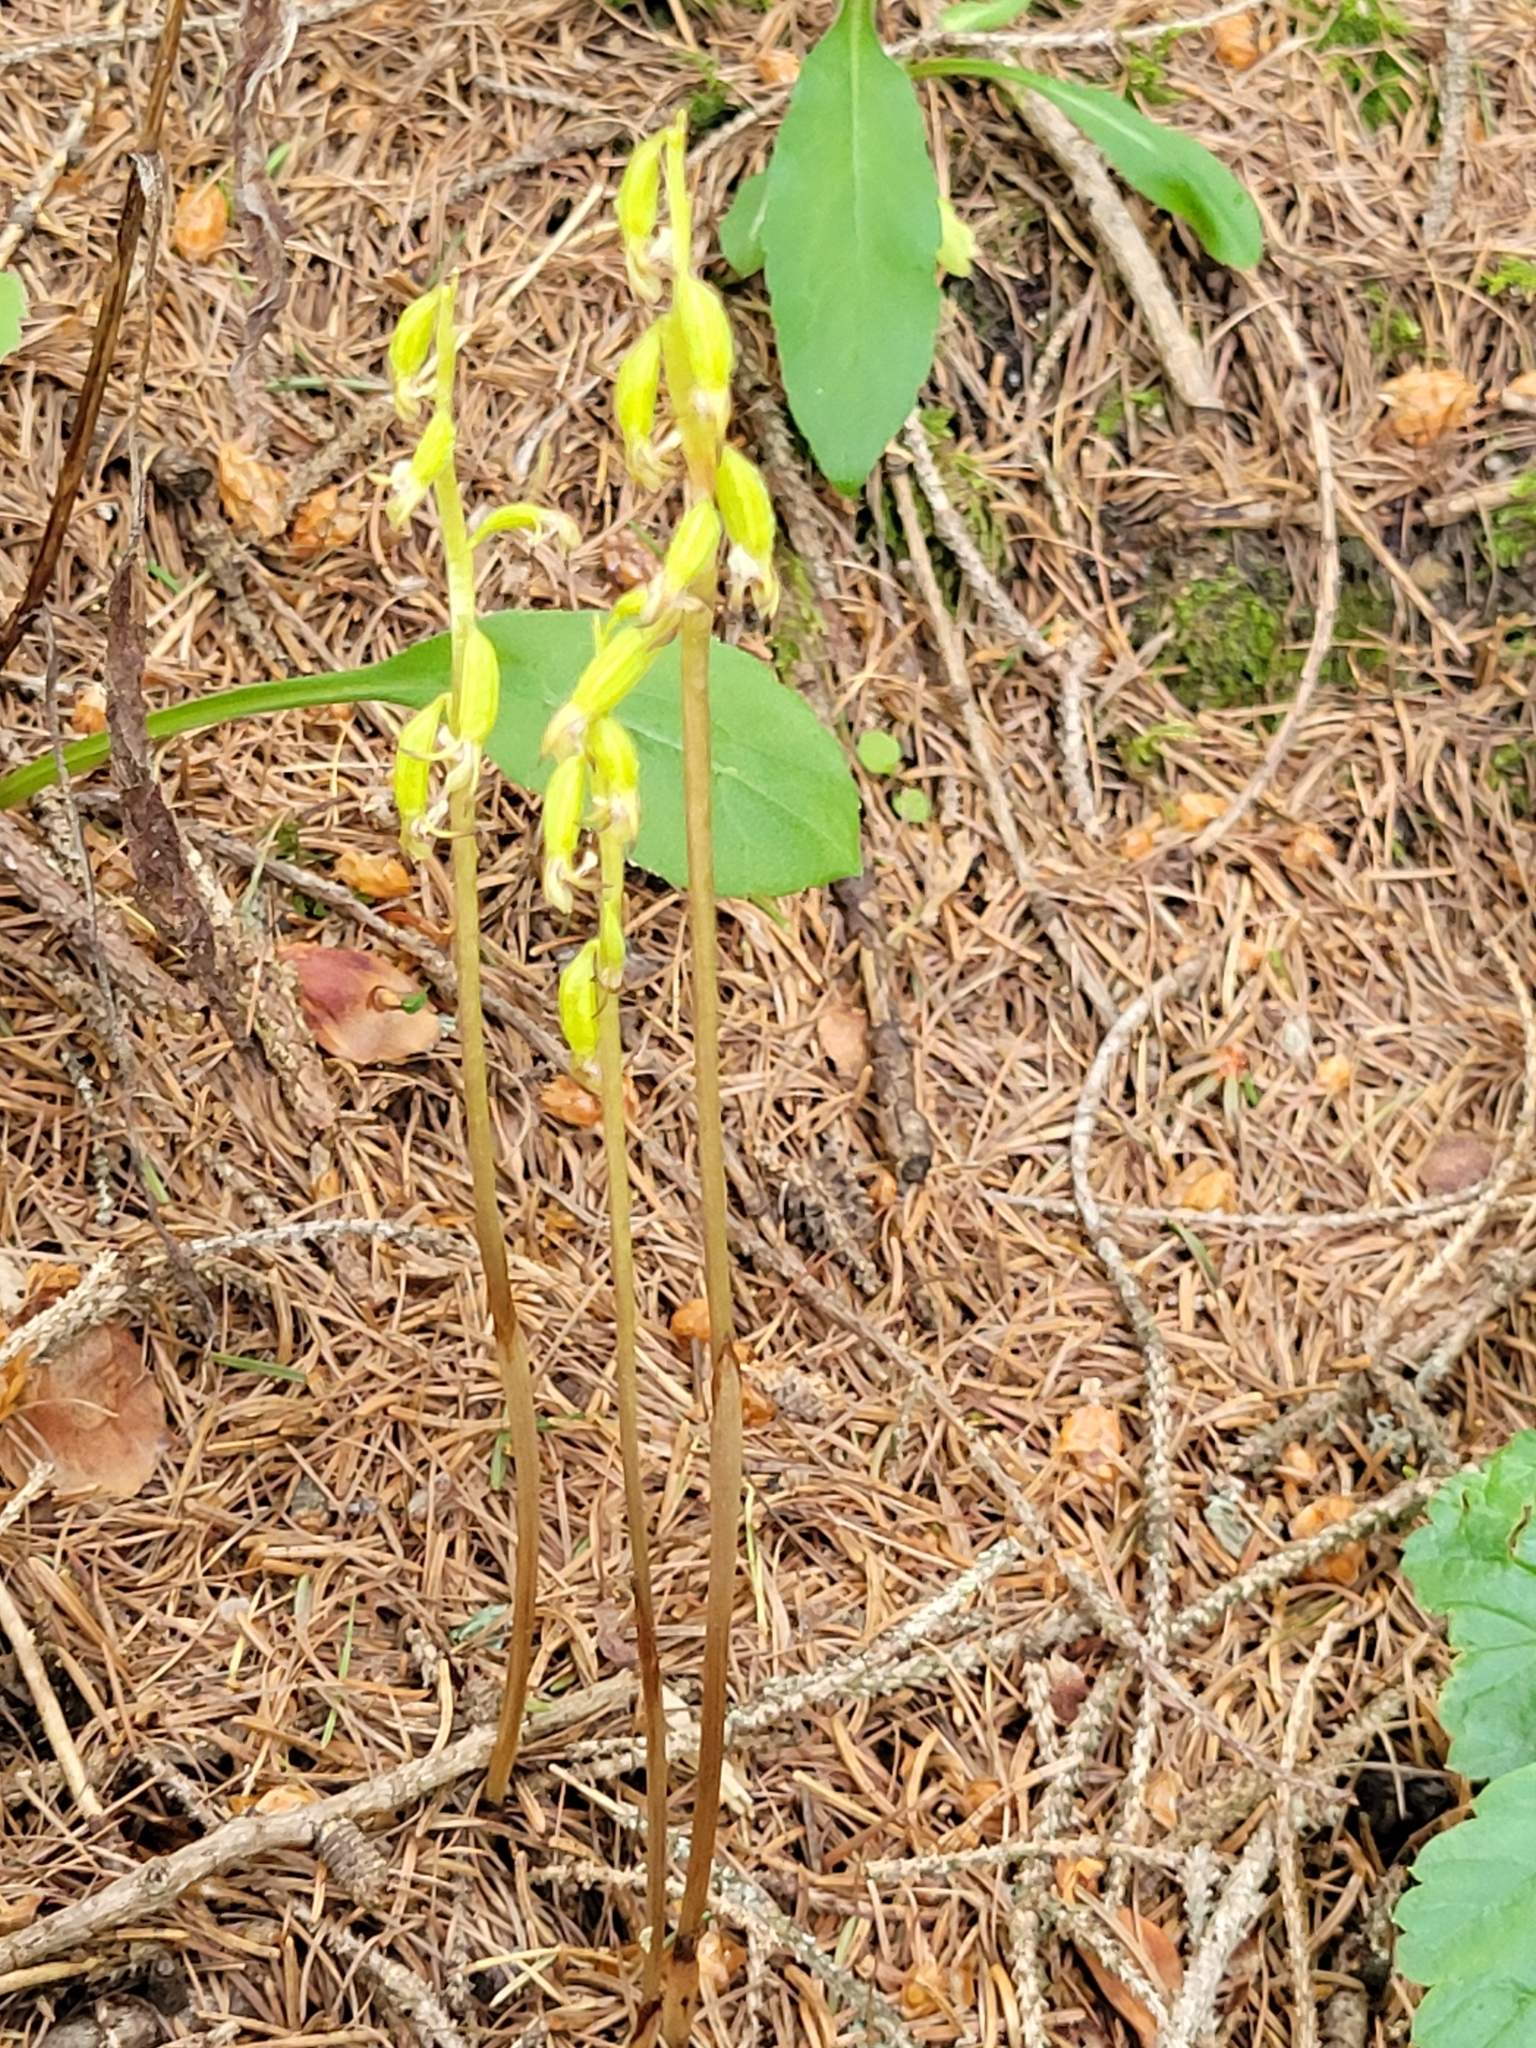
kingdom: Plantae
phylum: Tracheophyta
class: Liliopsida
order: Asparagales
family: Orchidaceae
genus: Corallorhiza
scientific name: Corallorhiza trifida
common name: Yellow coralroot
